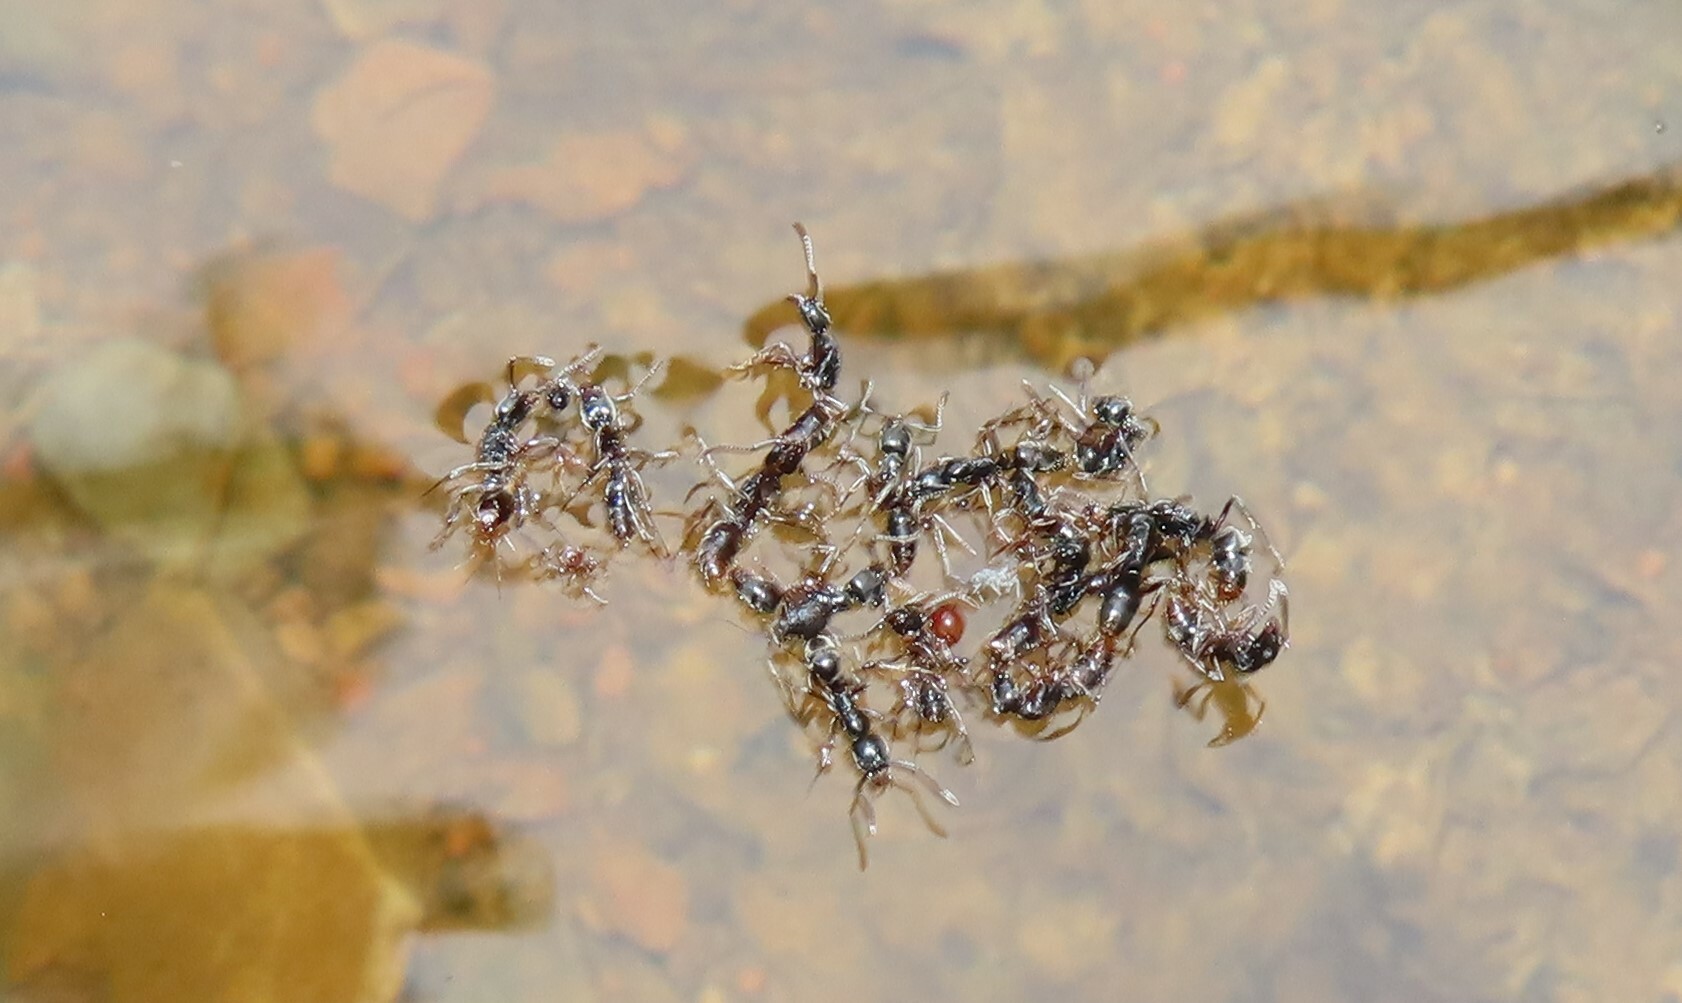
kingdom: Animalia
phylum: Arthropoda
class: Insecta
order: Hymenoptera
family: Formicidae
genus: Pachycondyla
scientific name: Pachycondyla chinensis
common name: Asian needle ant
